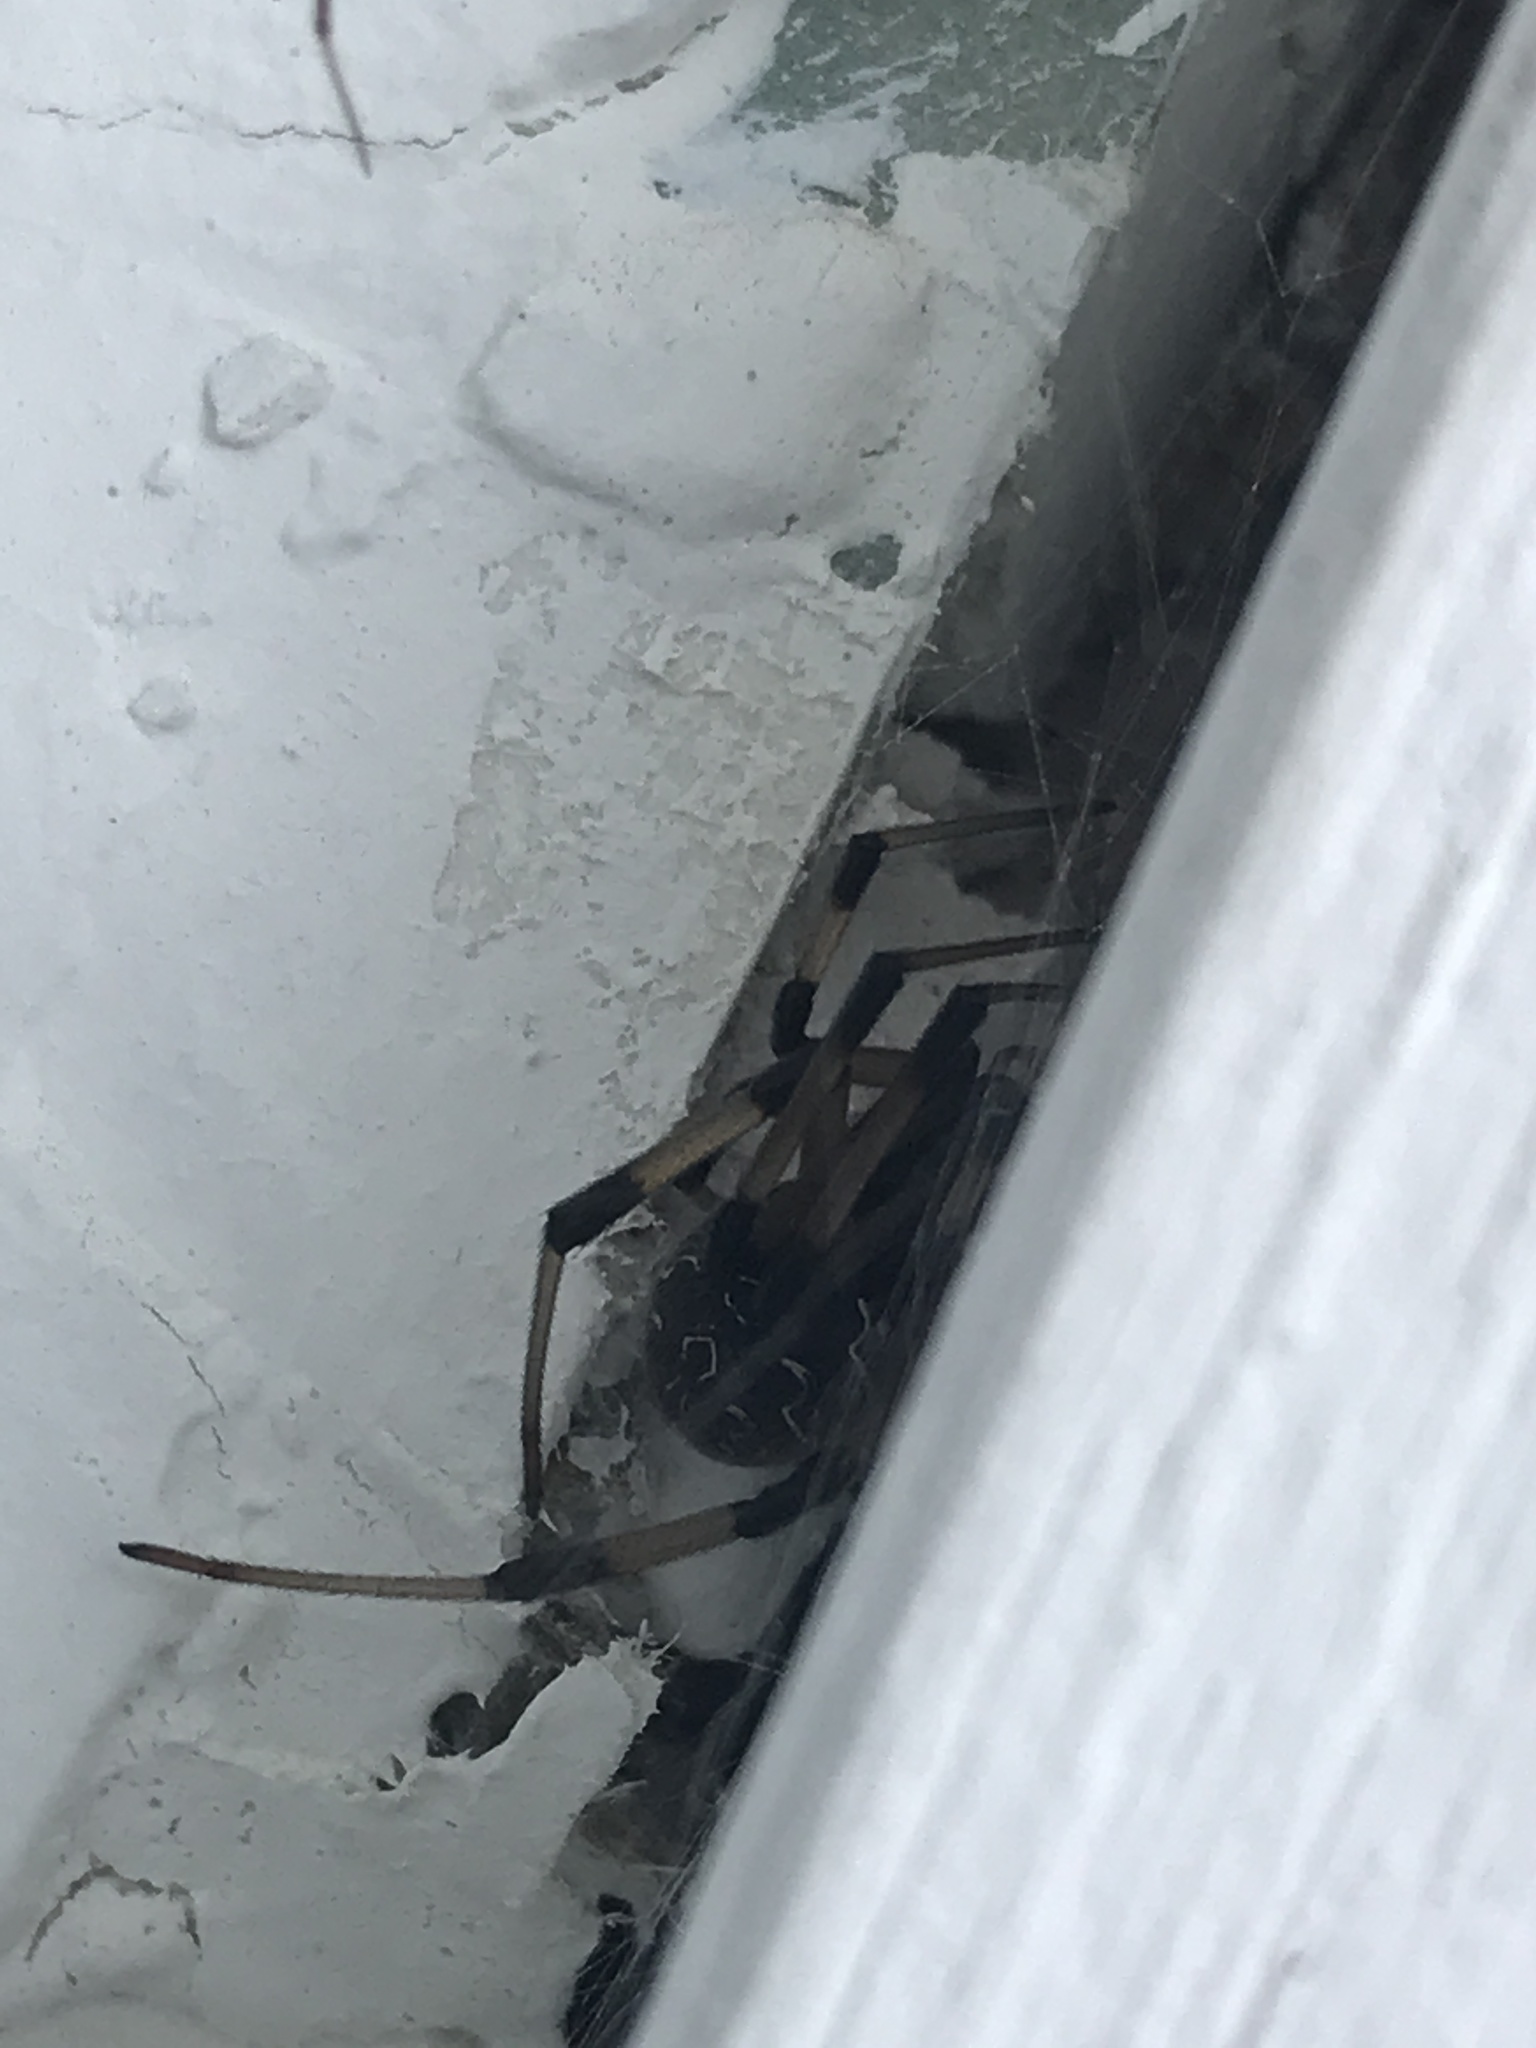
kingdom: Animalia
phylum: Arthropoda
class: Arachnida
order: Araneae
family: Theridiidae
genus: Latrodectus
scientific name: Latrodectus geometricus
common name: Brown widow spider
